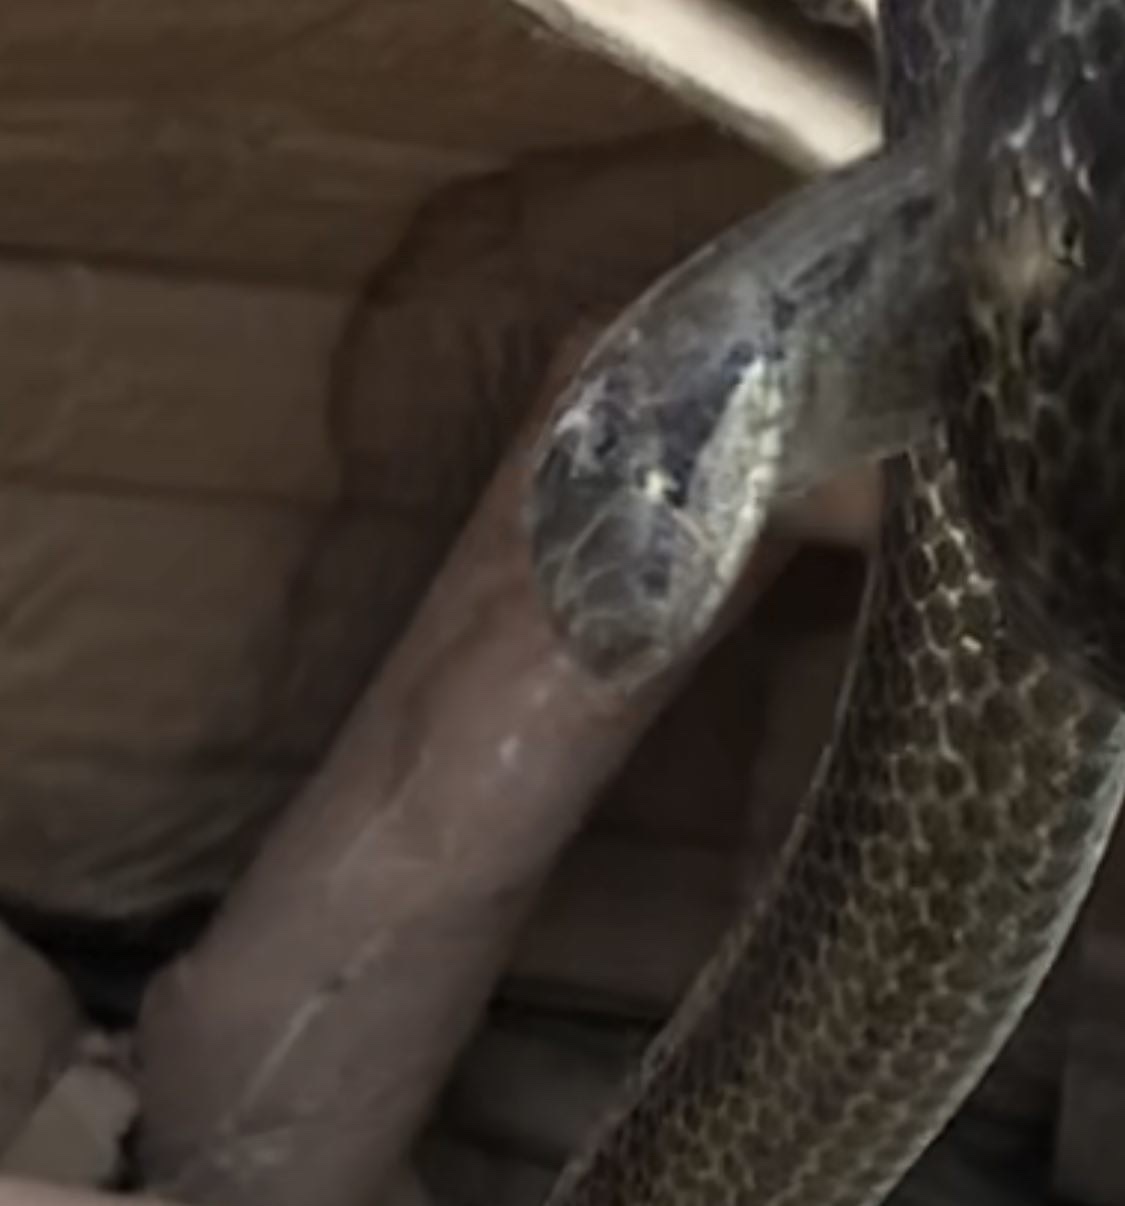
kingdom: Animalia
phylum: Chordata
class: Squamata
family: Colubridae
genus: Coronella
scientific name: Coronella austriaca
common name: Smooth snake
